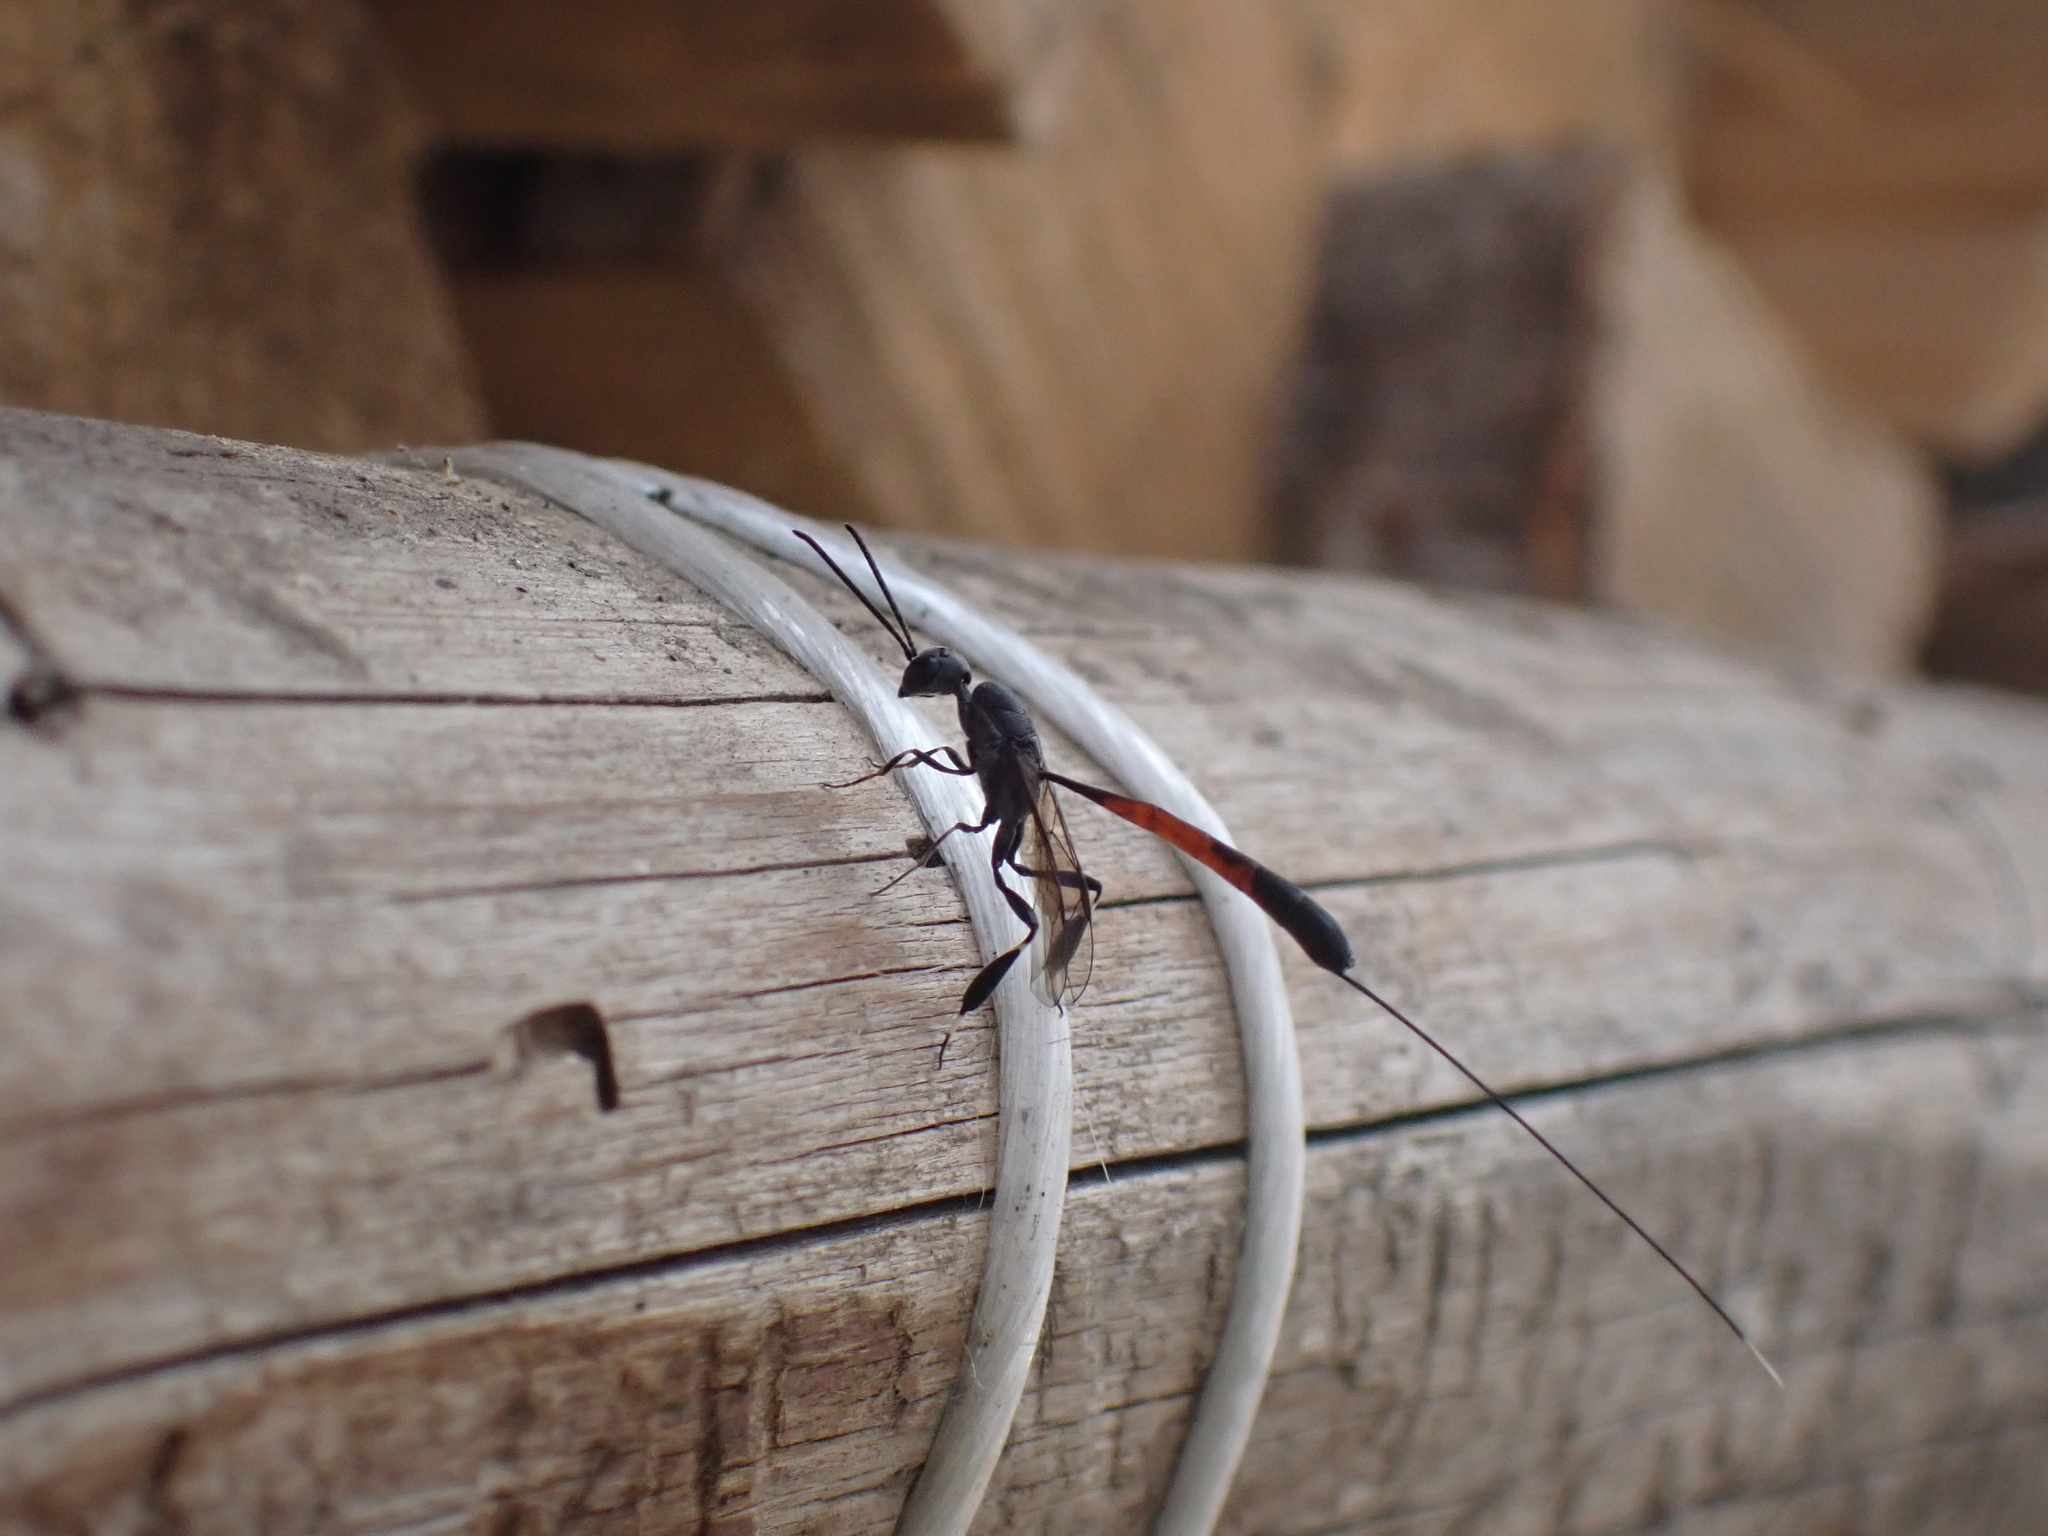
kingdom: Animalia
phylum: Arthropoda
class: Insecta
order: Hymenoptera
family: Gasteruptiidae
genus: Gasteruption
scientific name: Gasteruption
